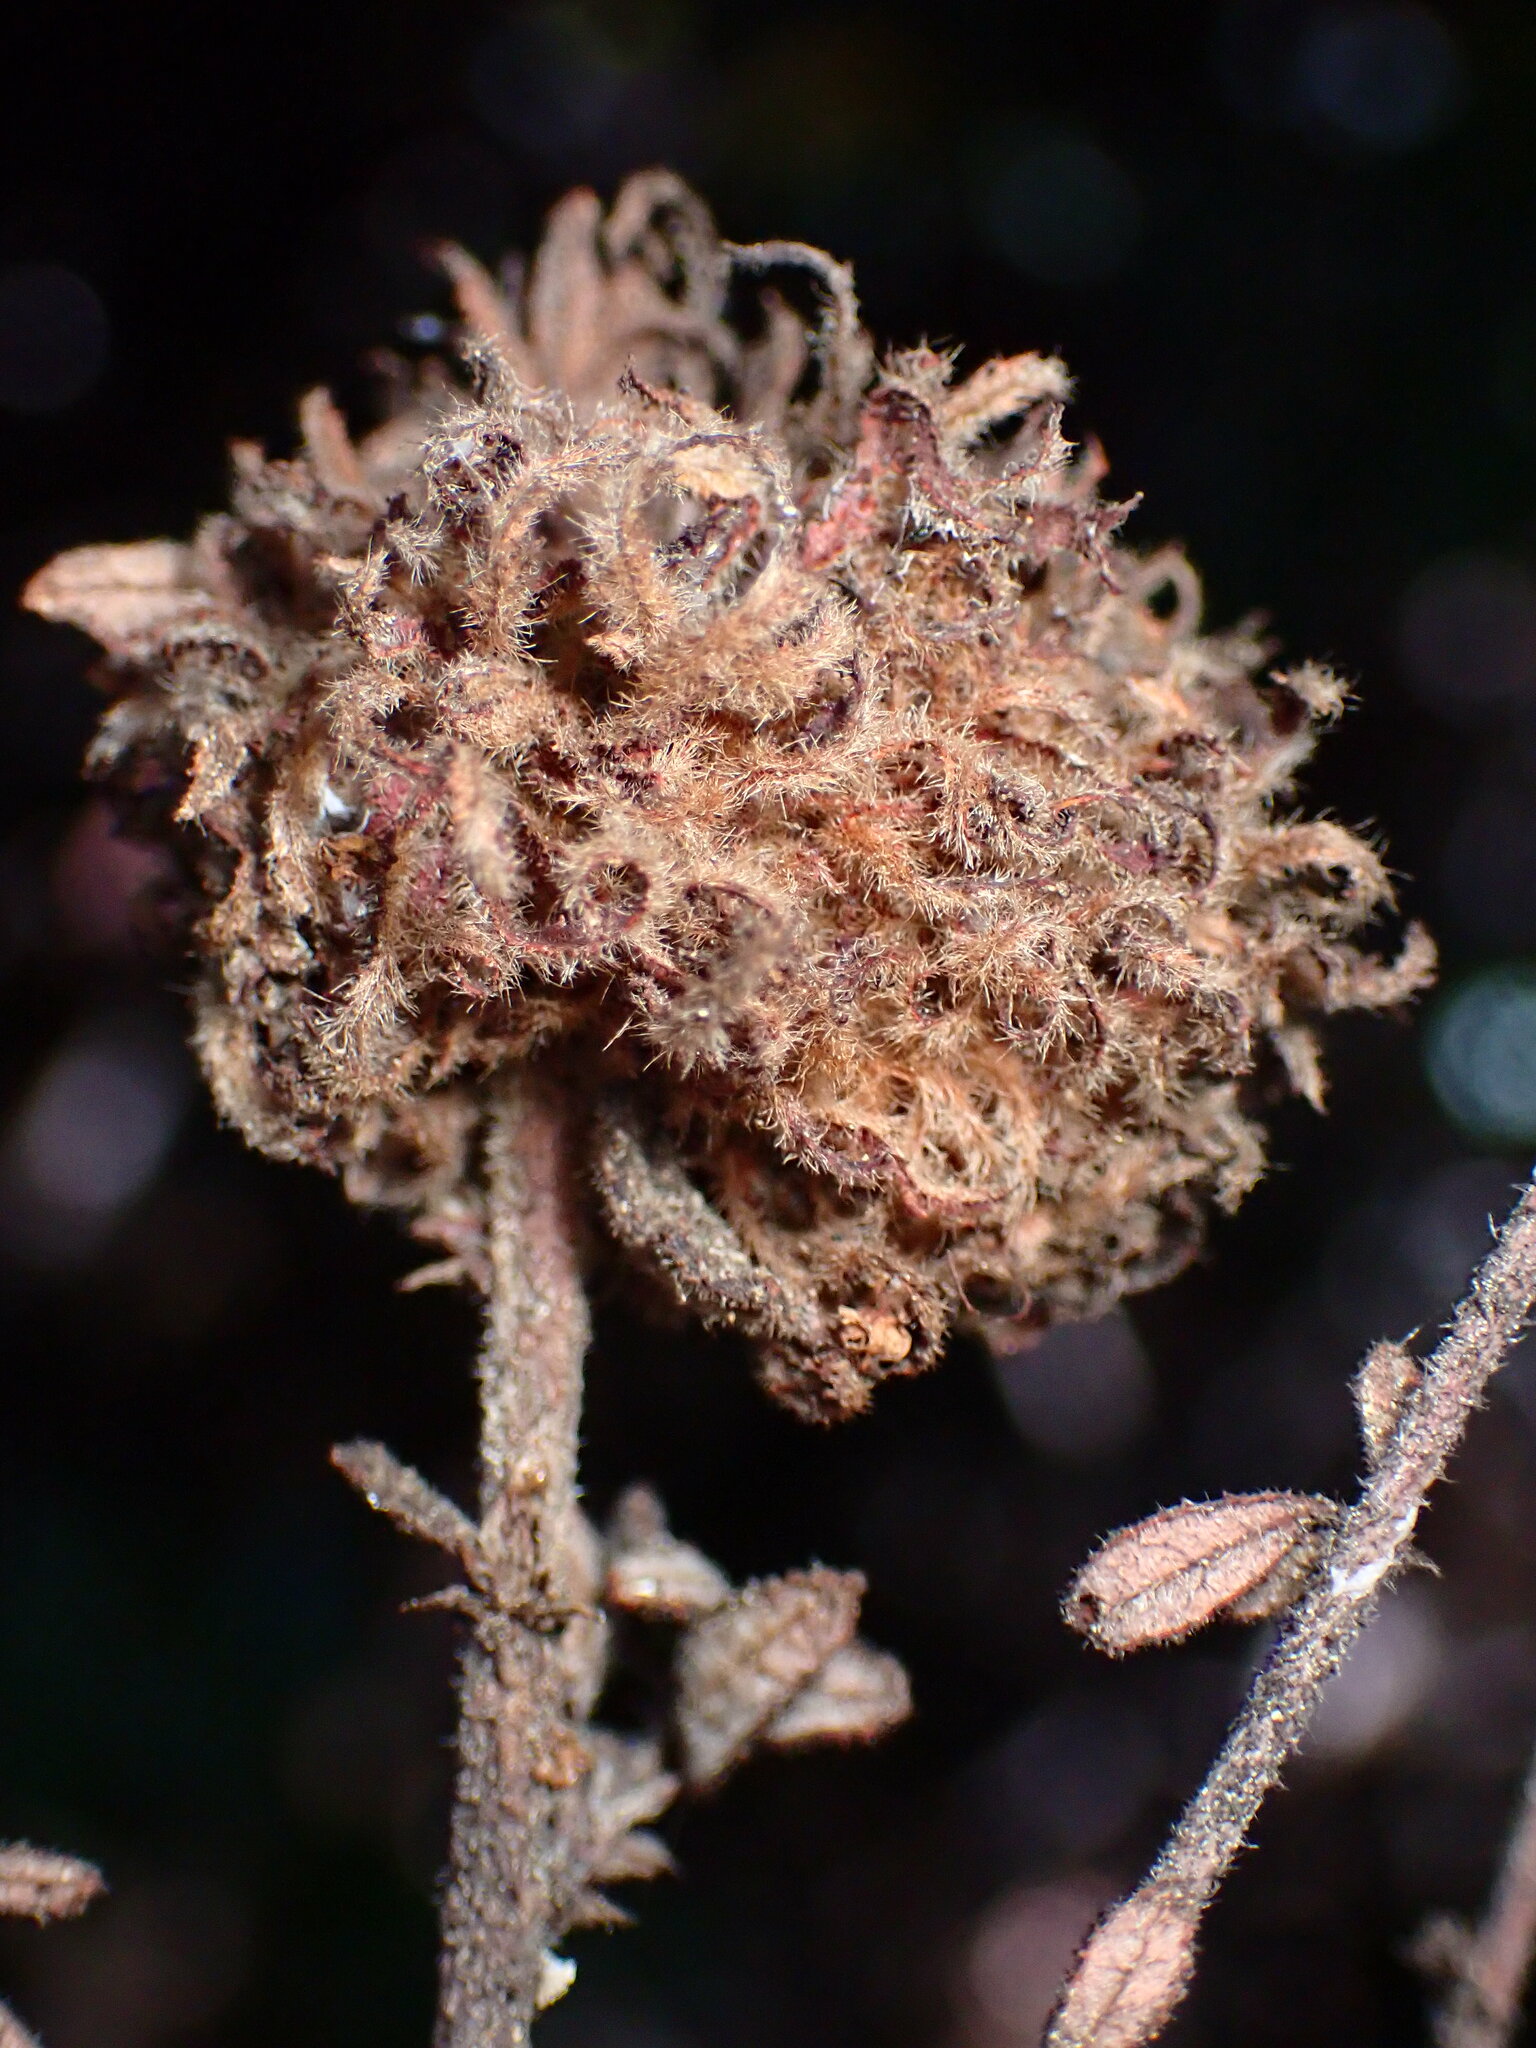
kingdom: Animalia
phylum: Arthropoda
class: Insecta
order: Diptera
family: Cecidomyiidae
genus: Asphondylia
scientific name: Asphondylia ceanothi
